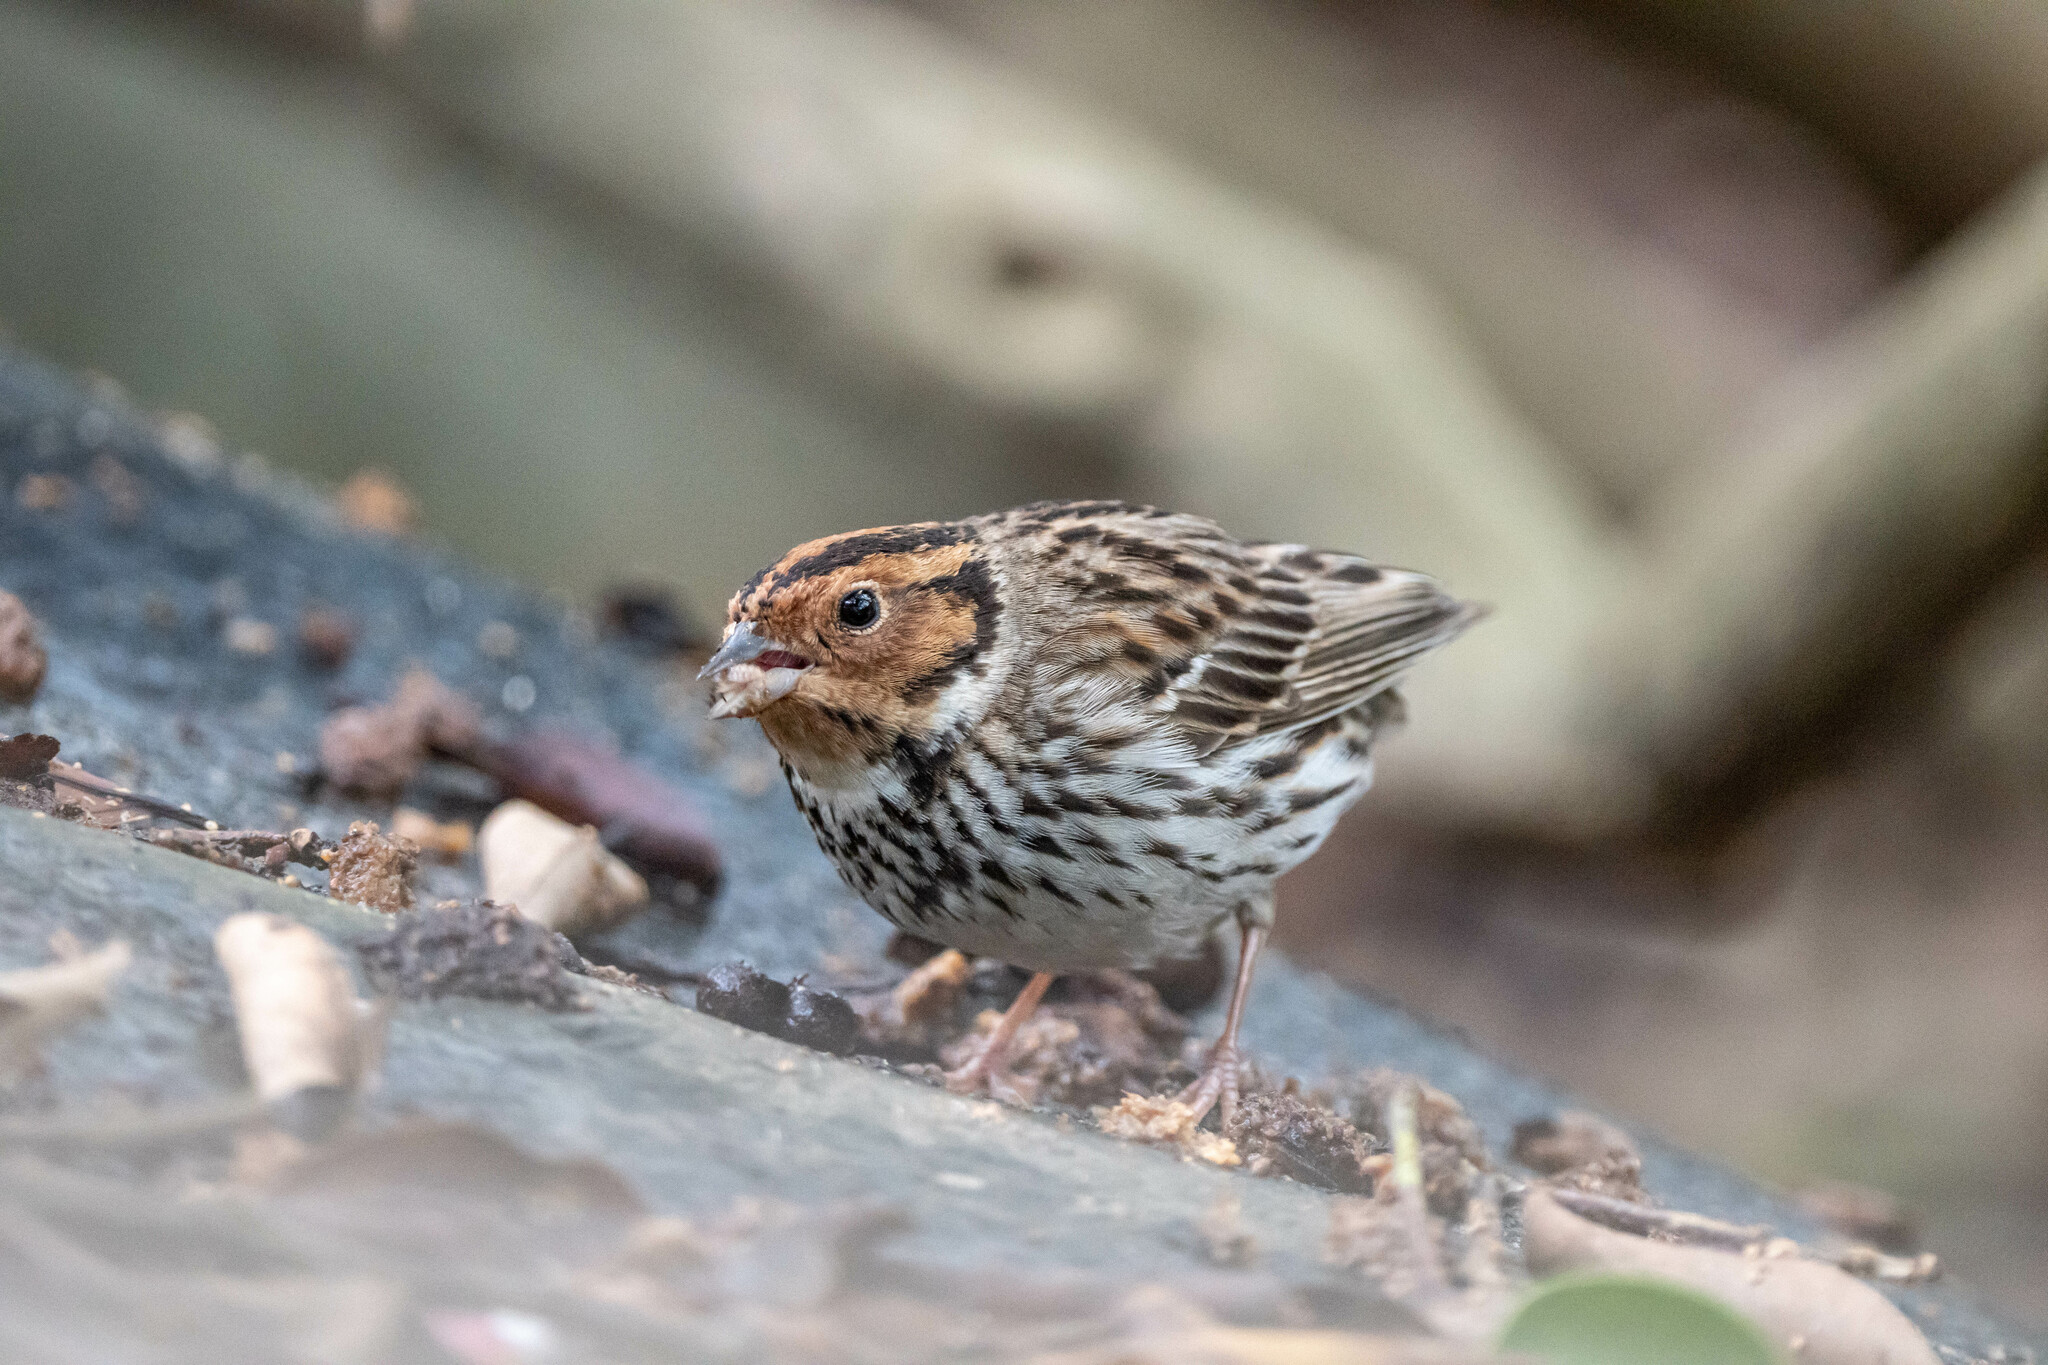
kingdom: Animalia
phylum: Chordata
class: Aves
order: Passeriformes
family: Emberizidae
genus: Emberiza
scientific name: Emberiza pusilla
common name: Little bunting
